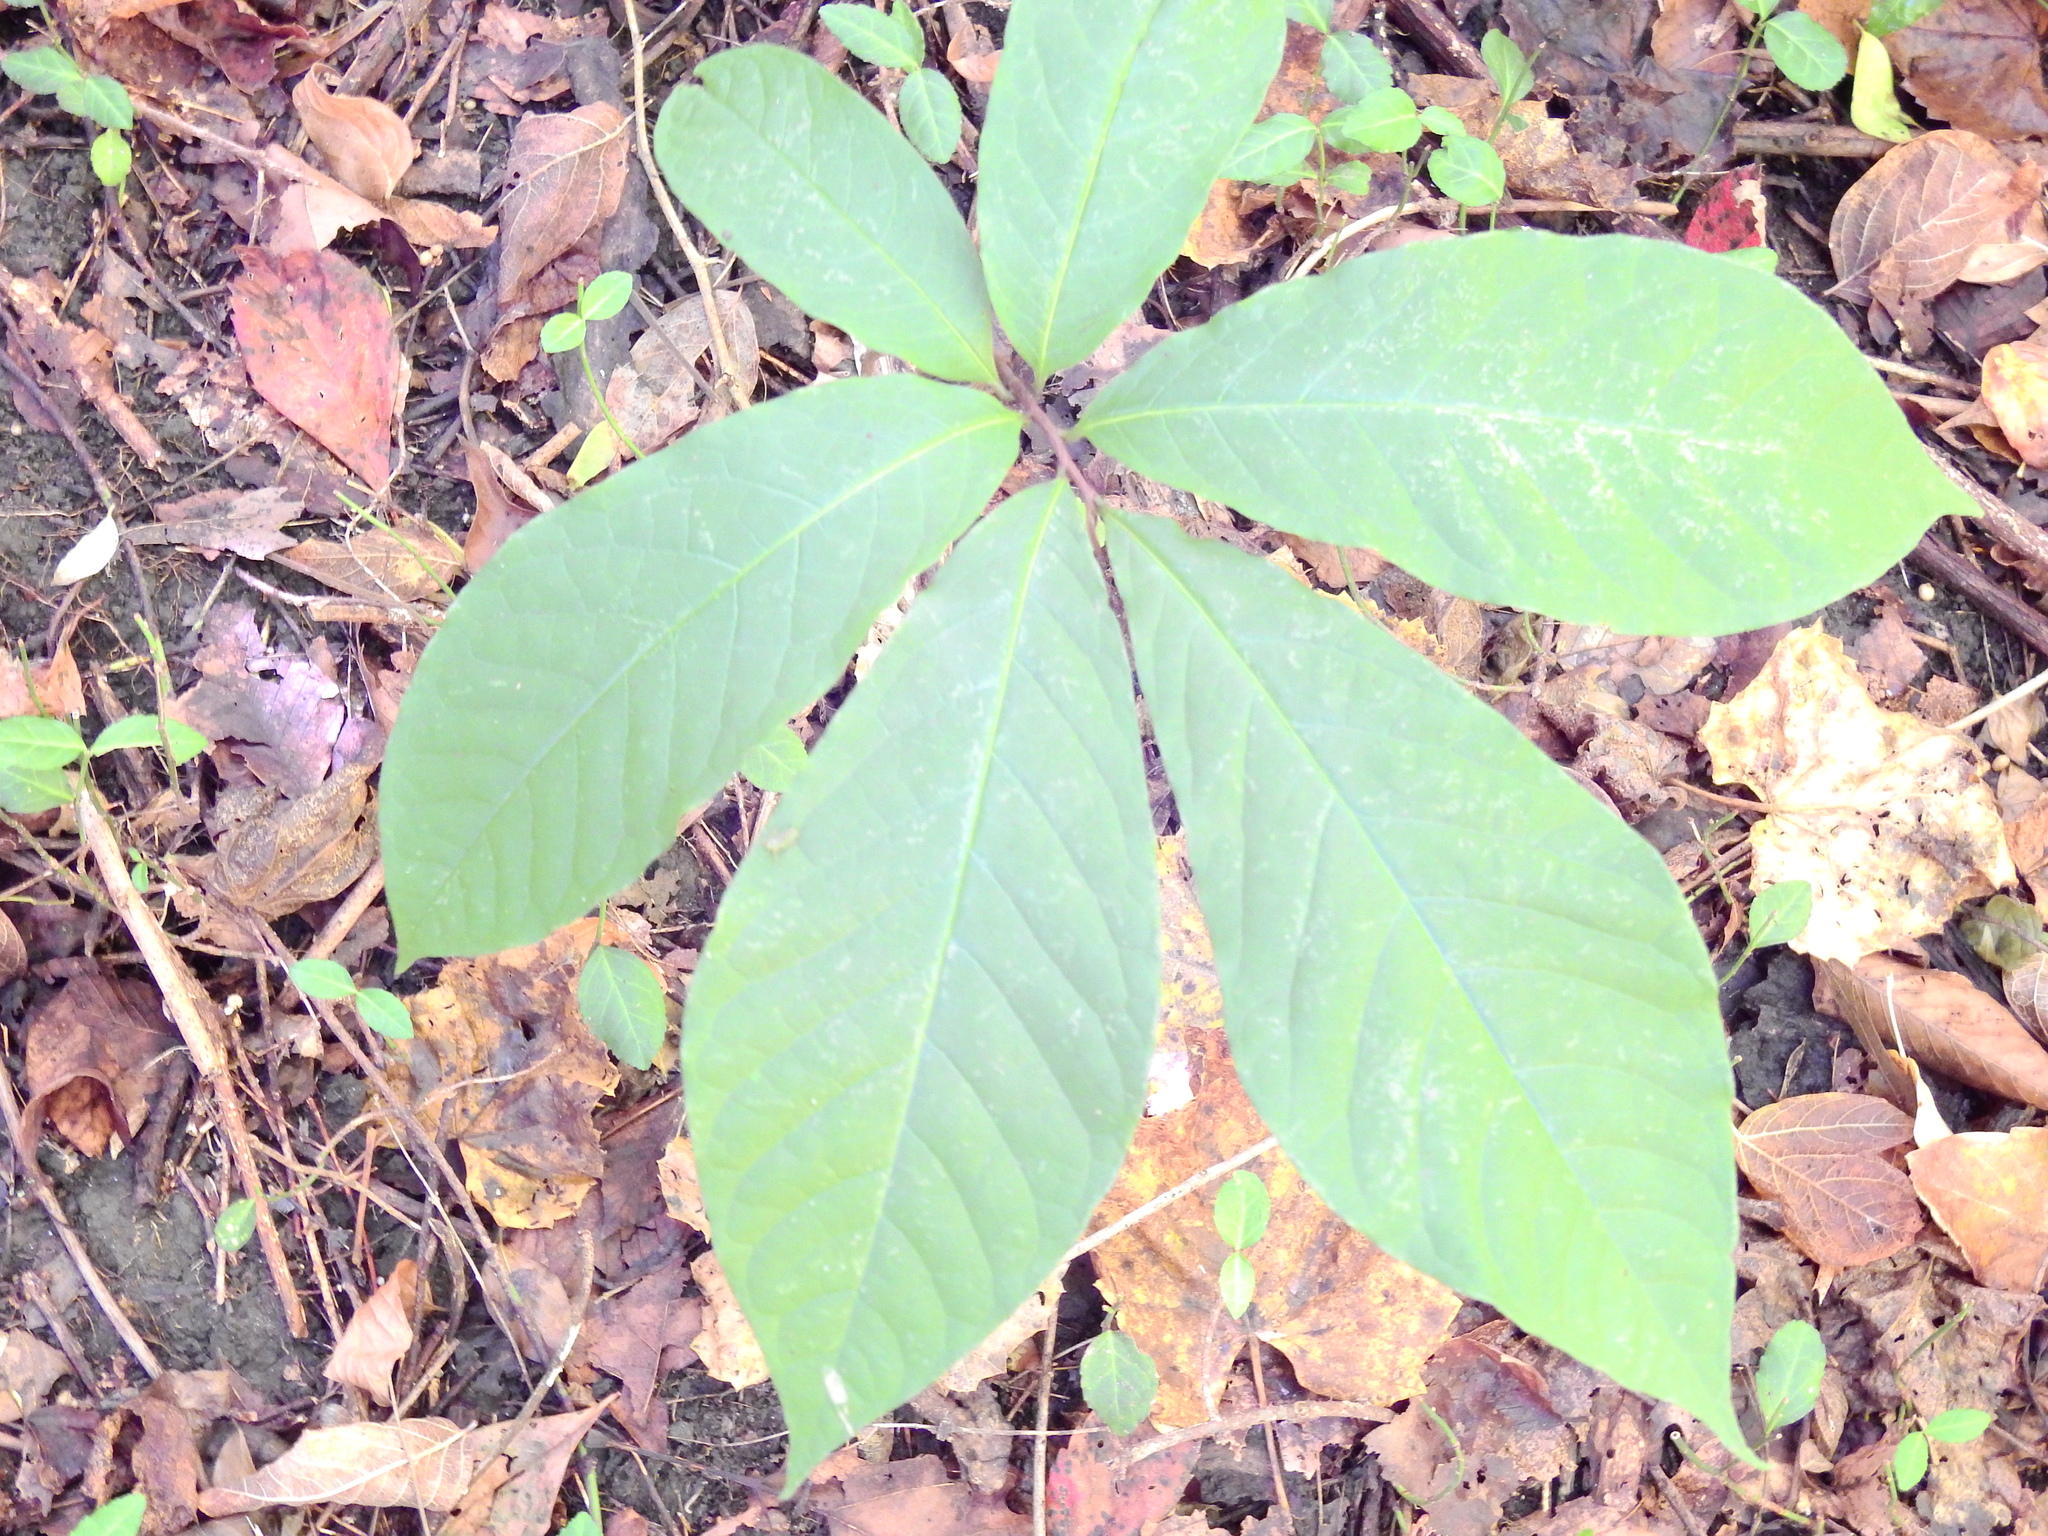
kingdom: Plantae
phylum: Tracheophyta
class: Magnoliopsida
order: Magnoliales
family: Annonaceae
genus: Asimina
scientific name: Asimina triloba
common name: Dog-banana
